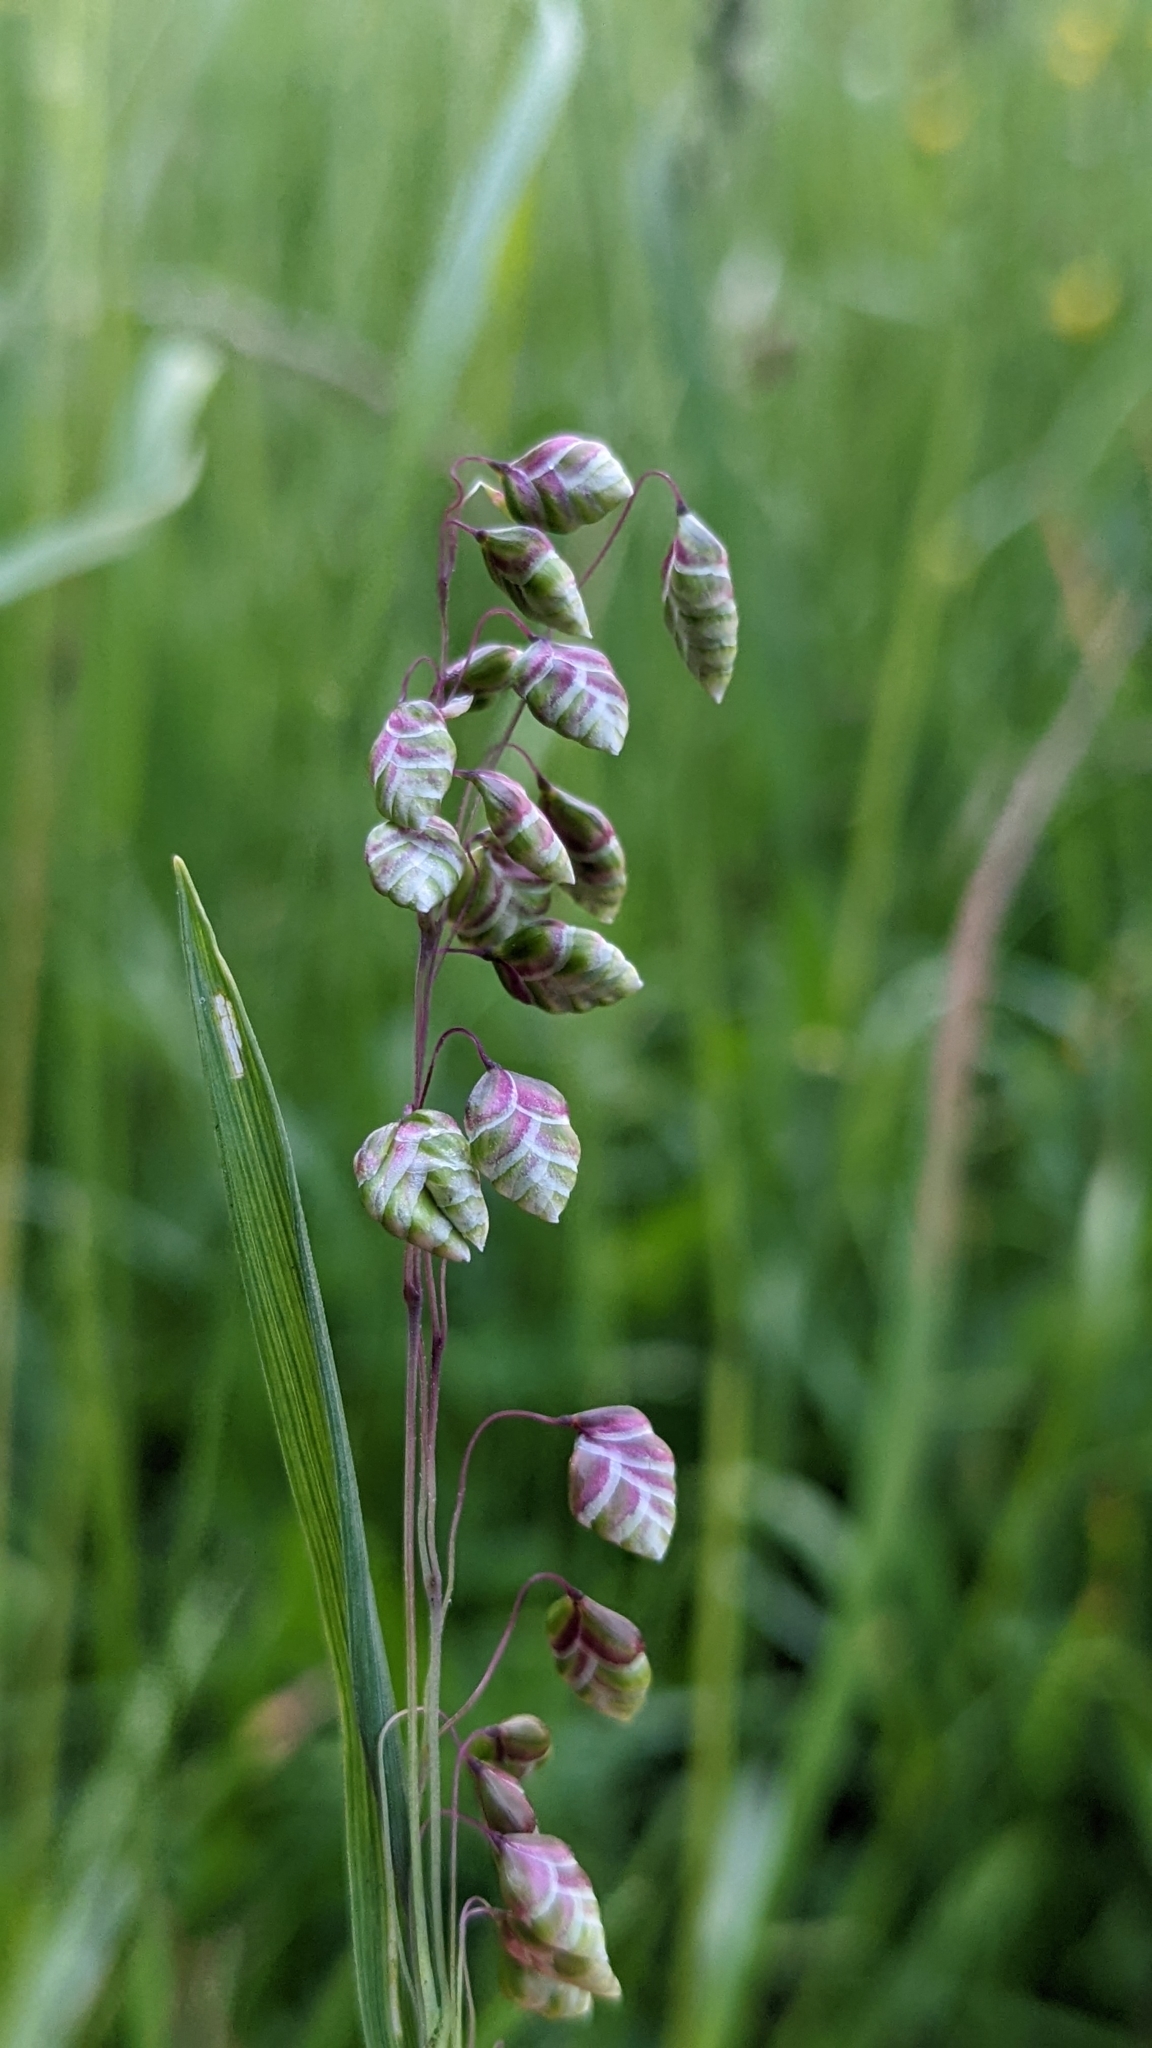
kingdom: Plantae
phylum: Tracheophyta
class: Liliopsida
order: Poales
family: Poaceae
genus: Briza
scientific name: Briza media
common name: Quaking grass
